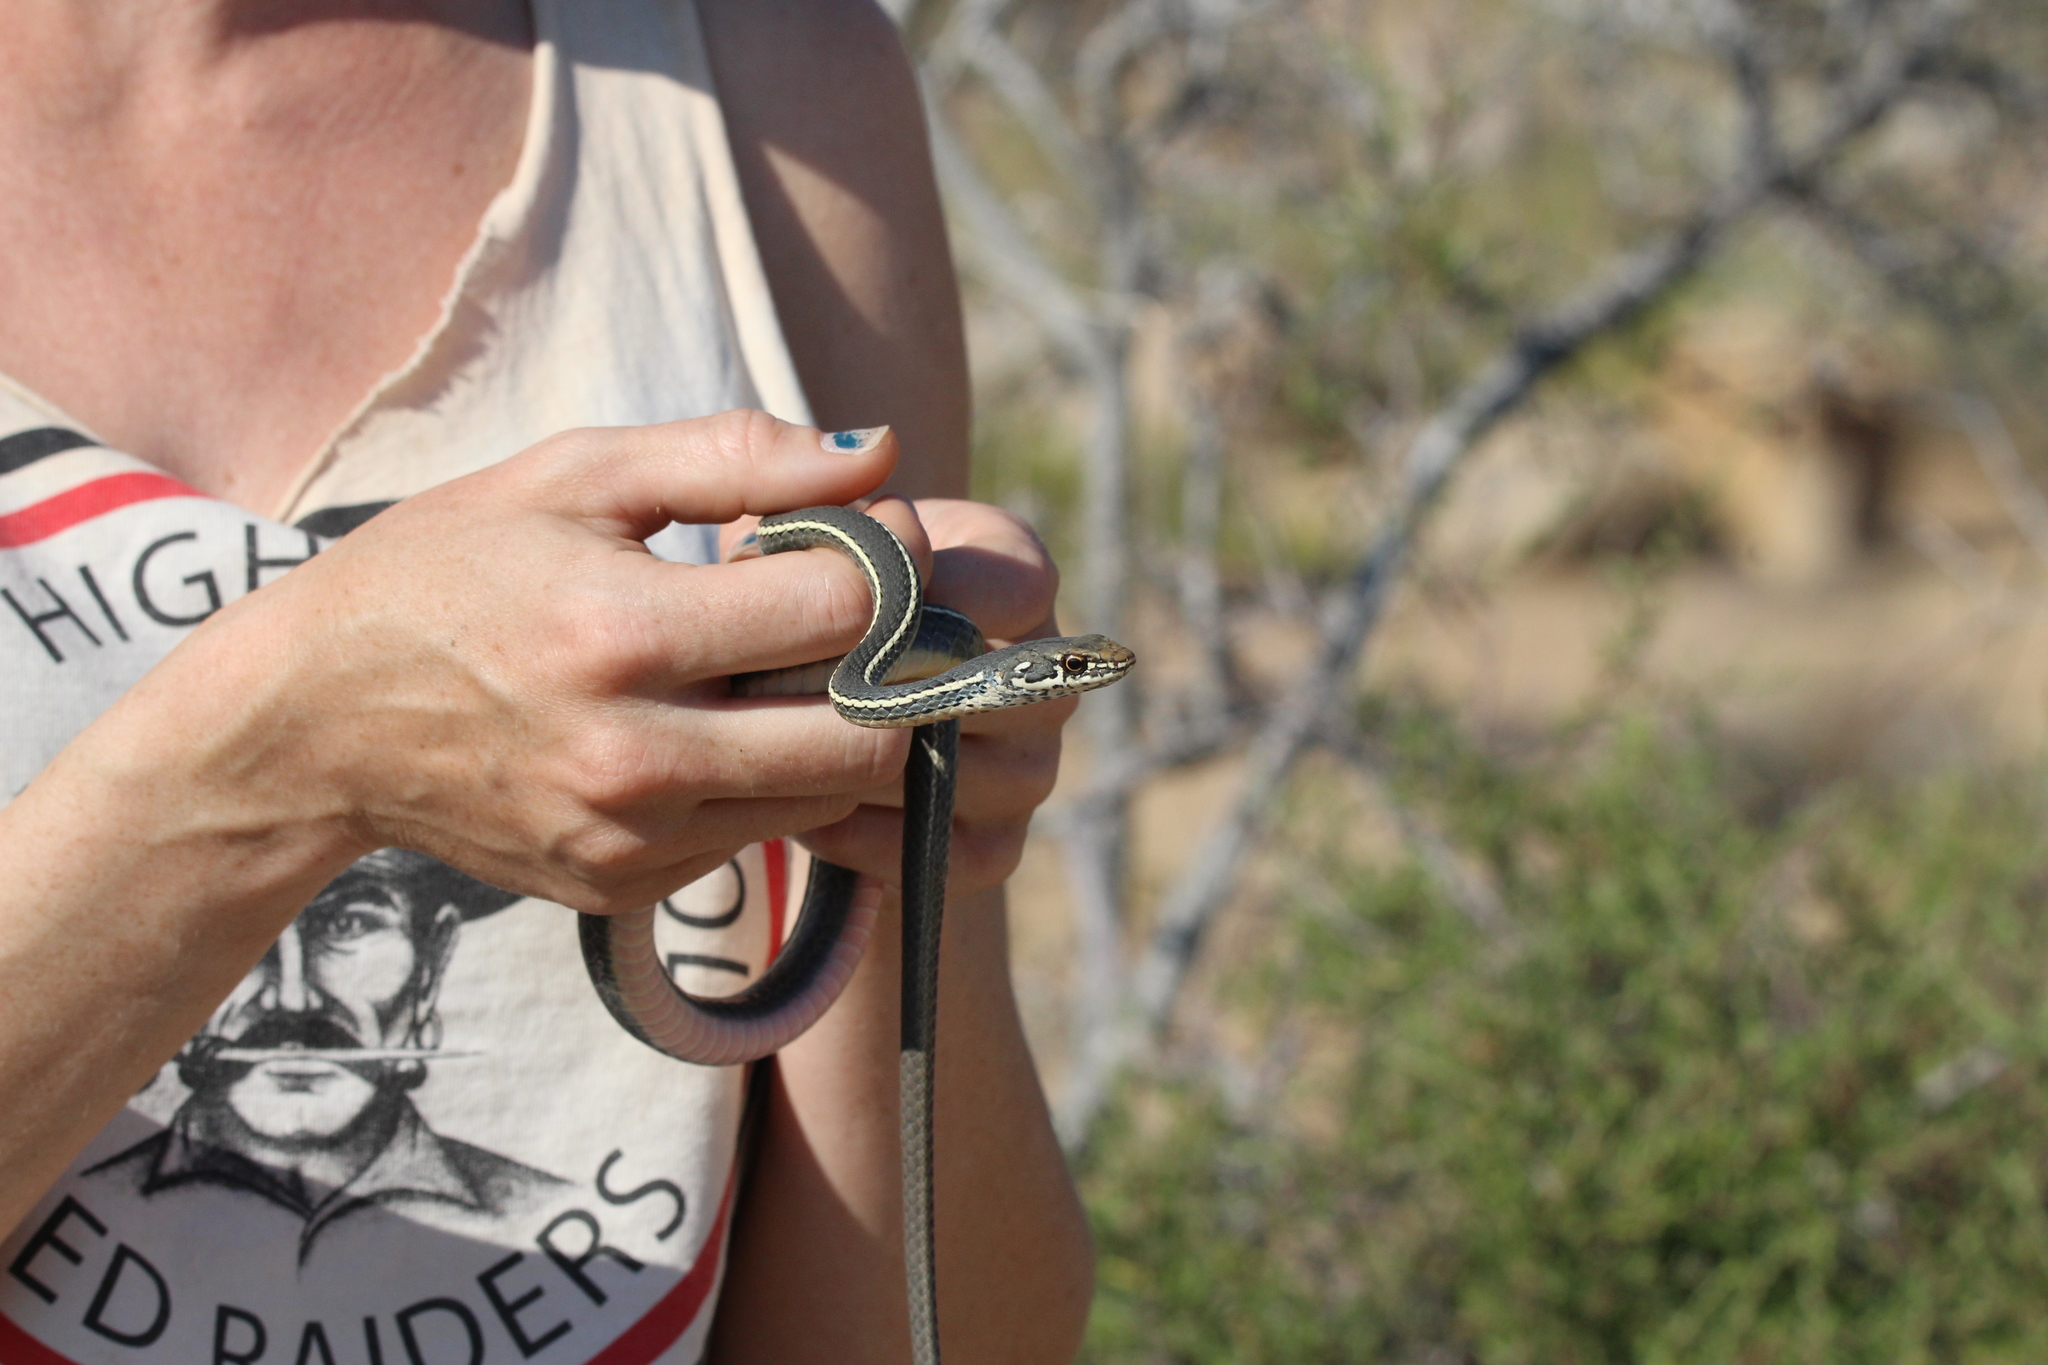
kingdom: Animalia
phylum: Chordata
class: Squamata
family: Colubridae
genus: Masticophis
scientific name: Masticophis lateralis
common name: Striped racer
